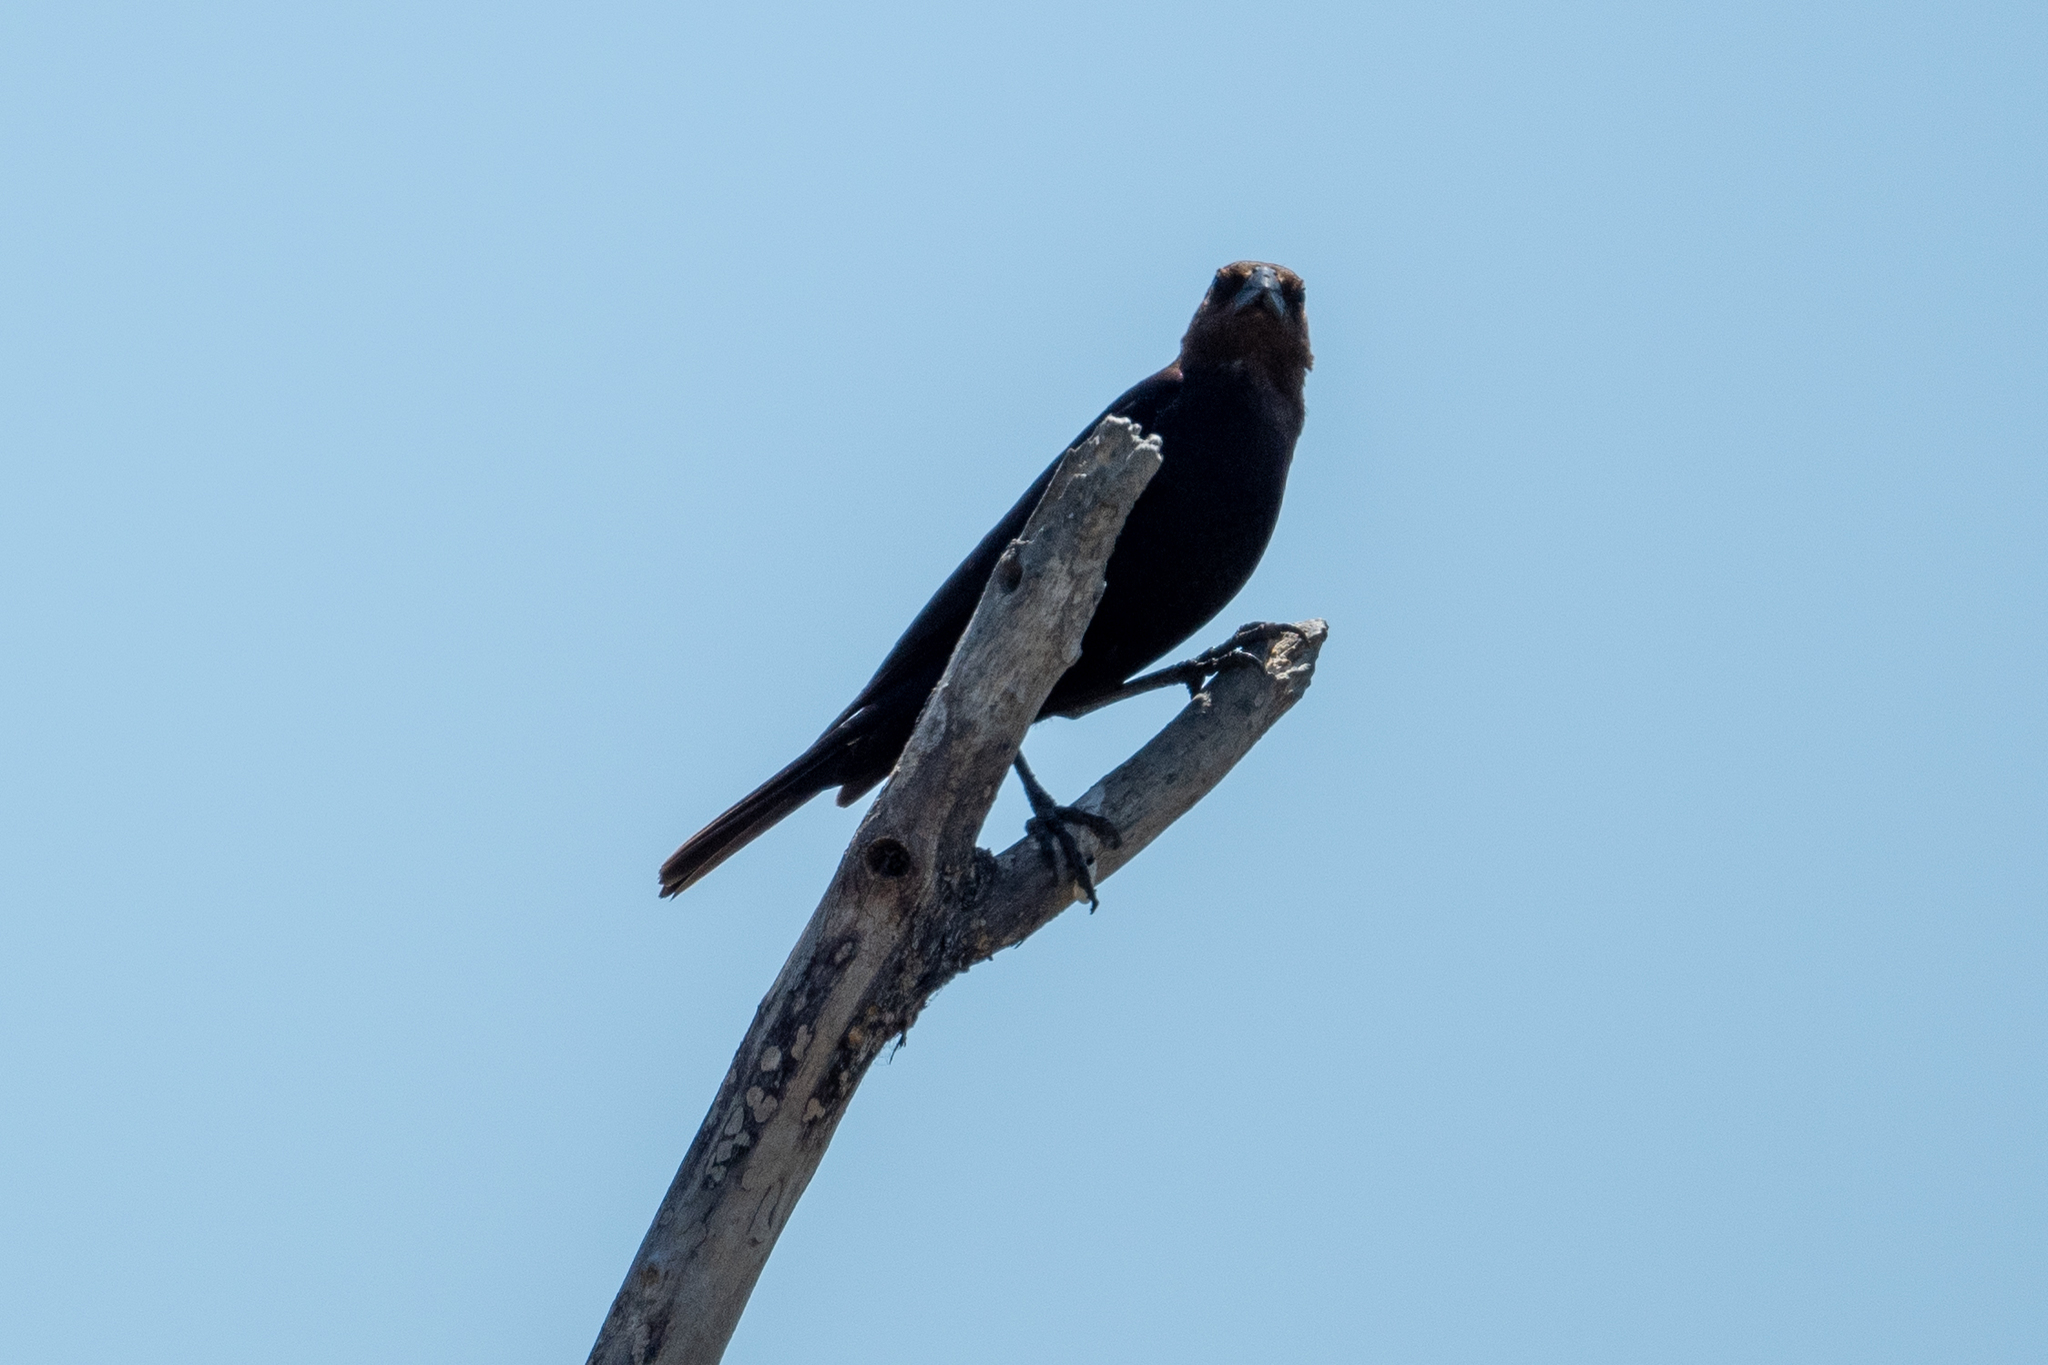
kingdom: Animalia
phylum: Chordata
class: Aves
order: Passeriformes
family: Icteridae
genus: Molothrus
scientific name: Molothrus ater
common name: Brown-headed cowbird
